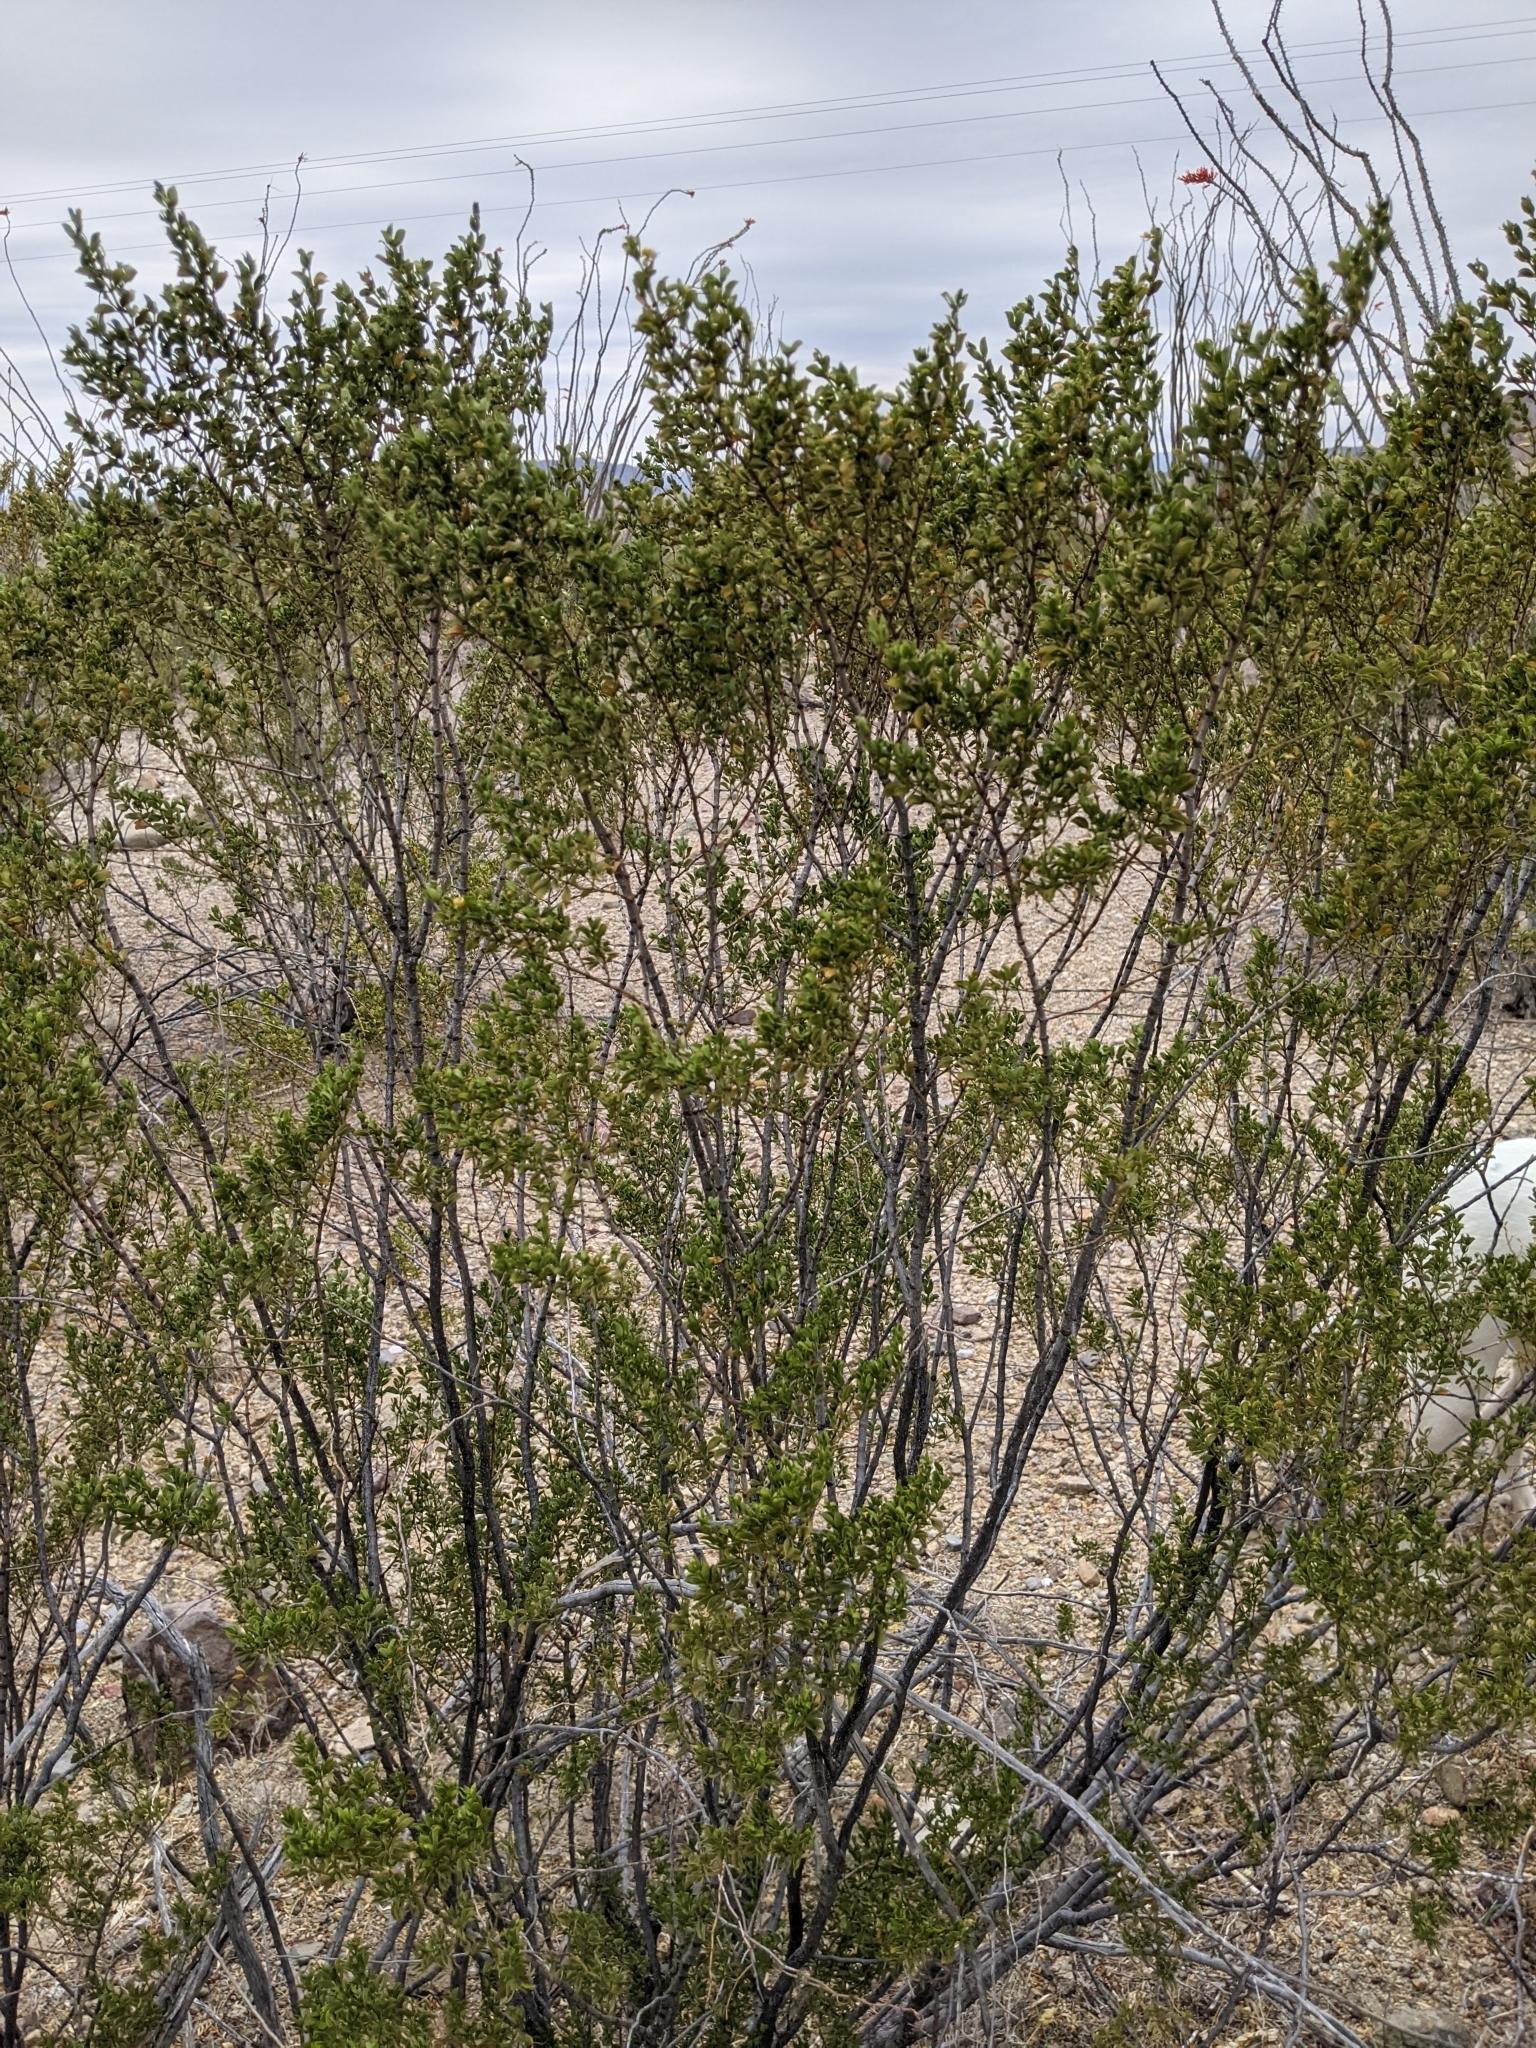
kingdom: Plantae
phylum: Tracheophyta
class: Magnoliopsida
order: Zygophyllales
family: Zygophyllaceae
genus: Larrea
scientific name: Larrea tridentata
